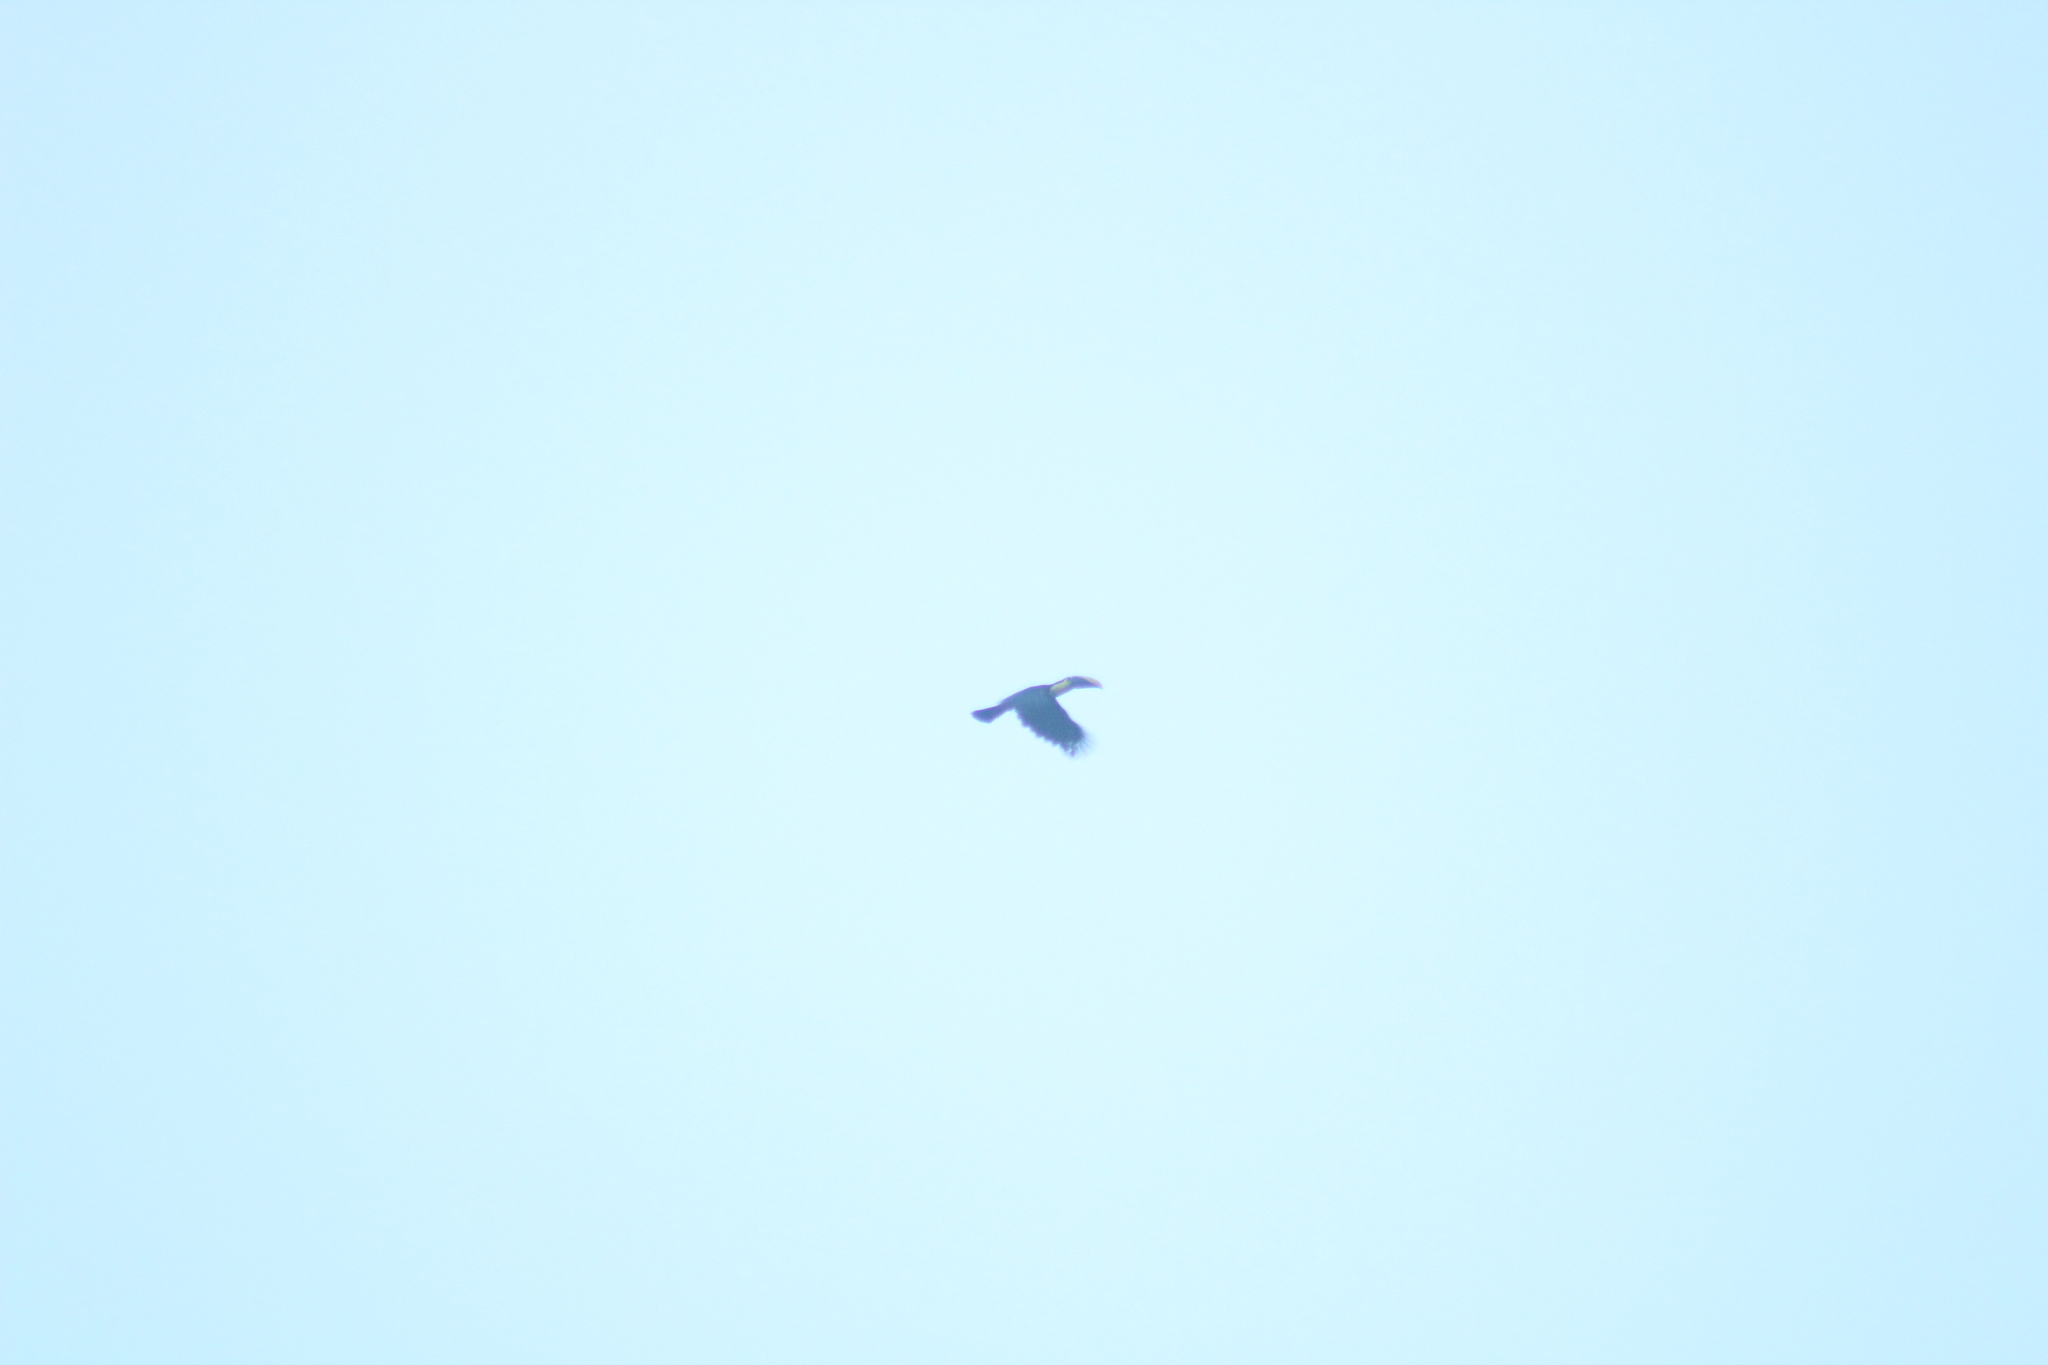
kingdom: Animalia
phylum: Chordata
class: Aves
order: Piciformes
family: Ramphastidae
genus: Ramphastos
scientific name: Ramphastos ambiguus
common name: Yellow-throated toucan
